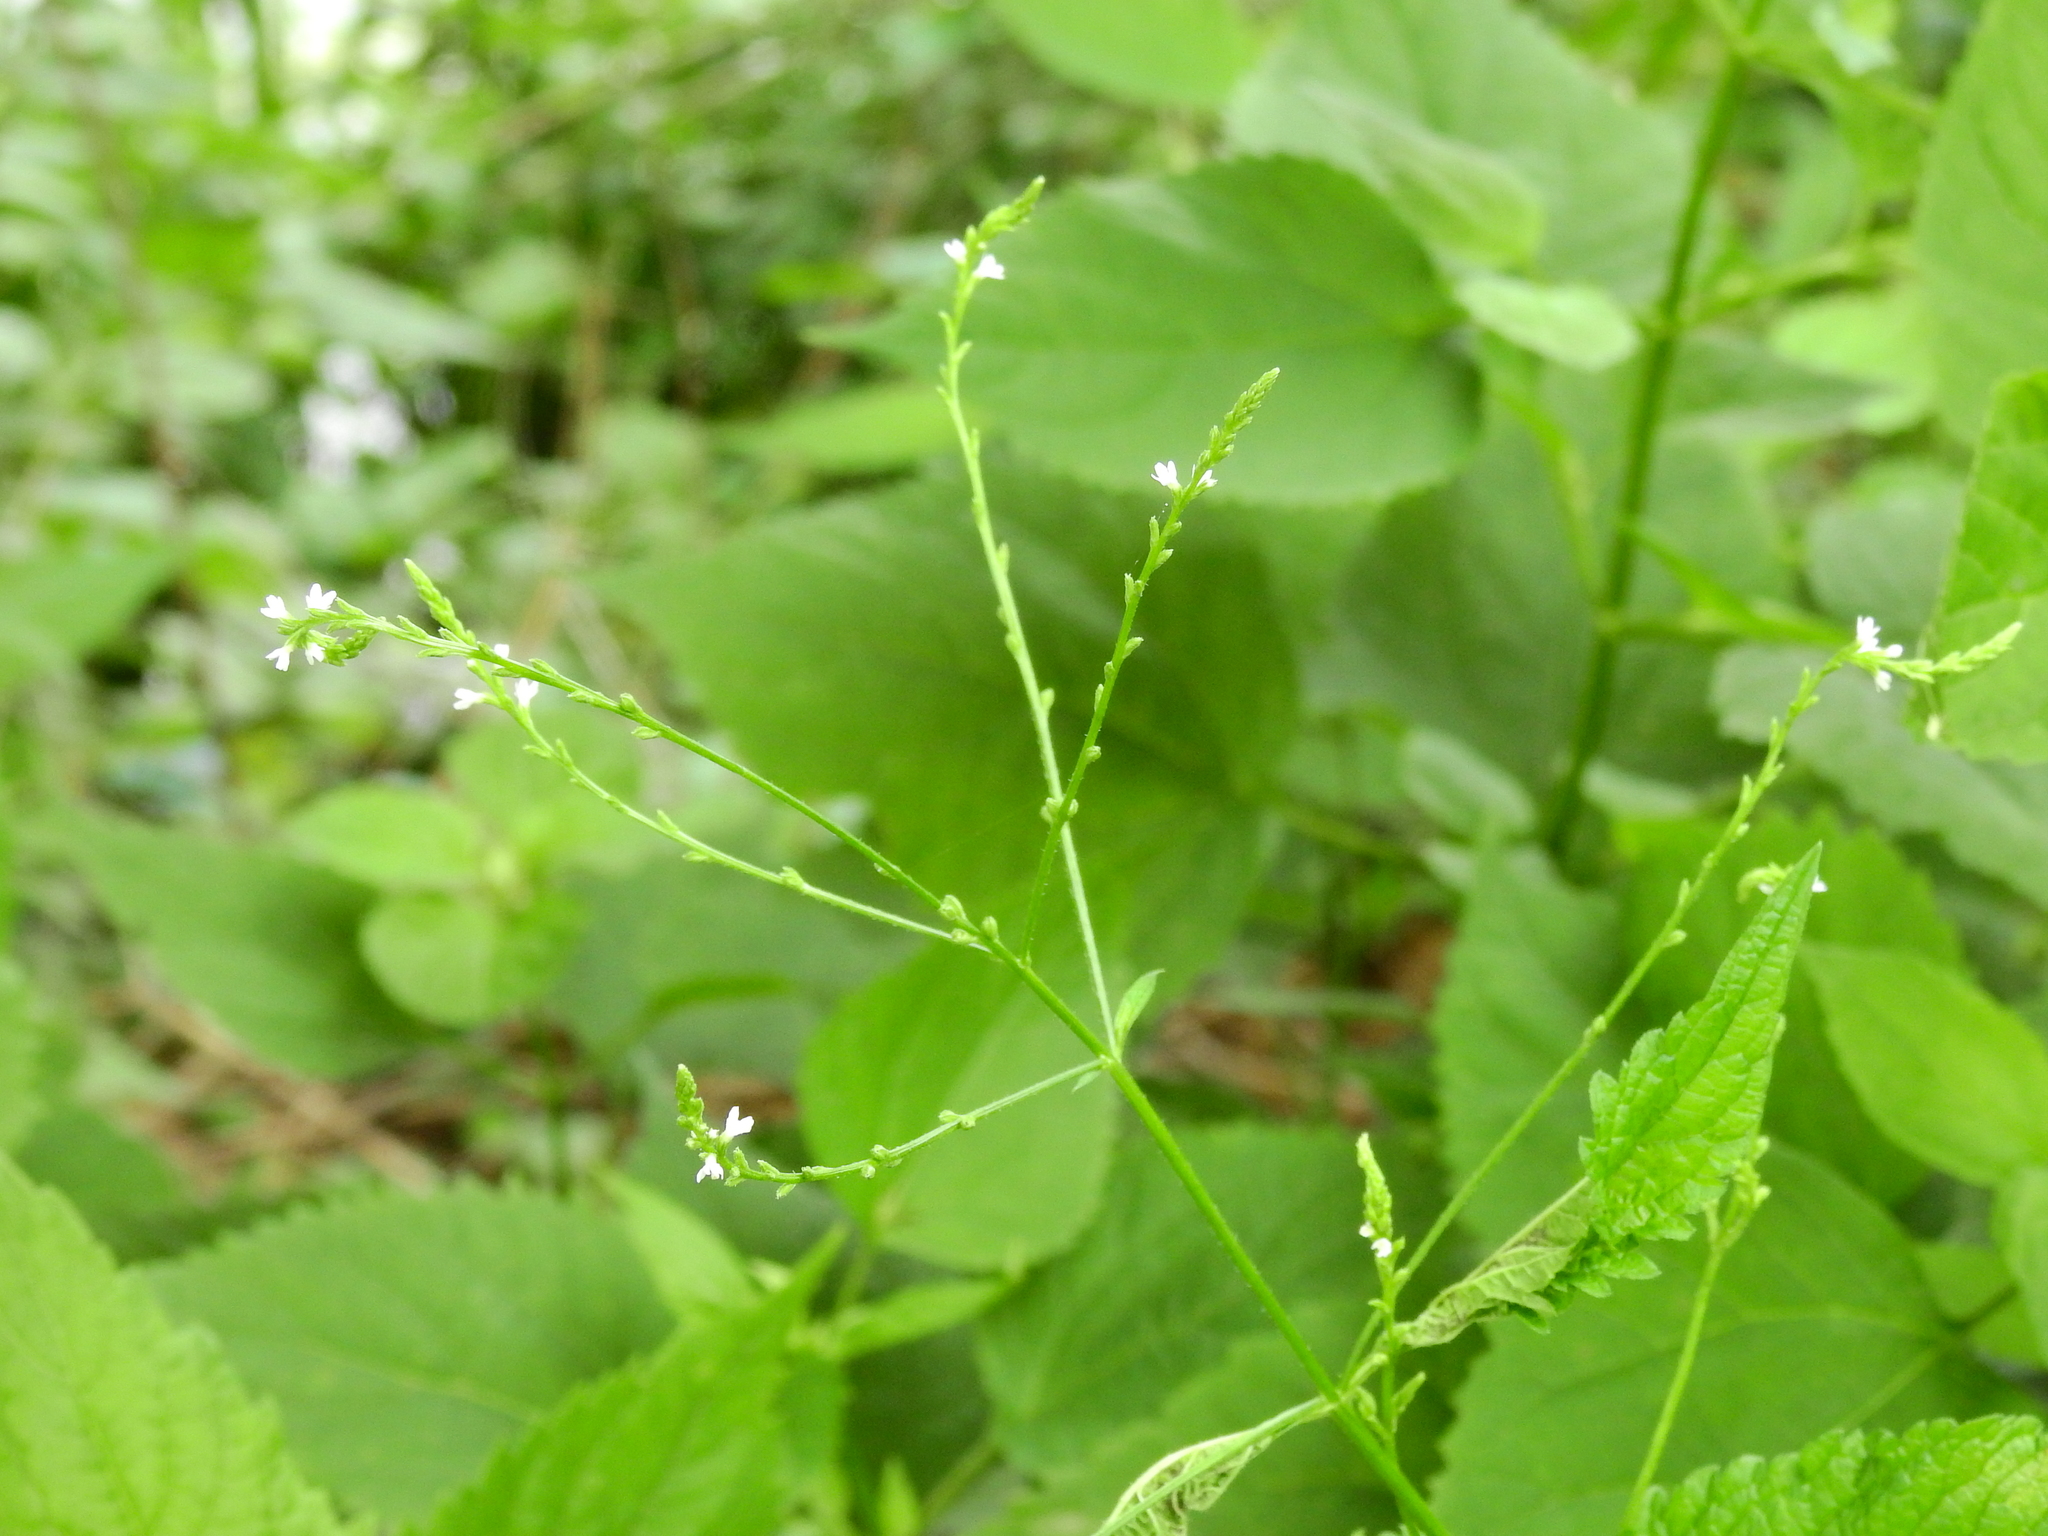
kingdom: Plantae
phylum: Tracheophyta
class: Magnoliopsida
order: Lamiales
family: Verbenaceae
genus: Verbena
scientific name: Verbena urticifolia
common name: Nettle-leaved vervain
